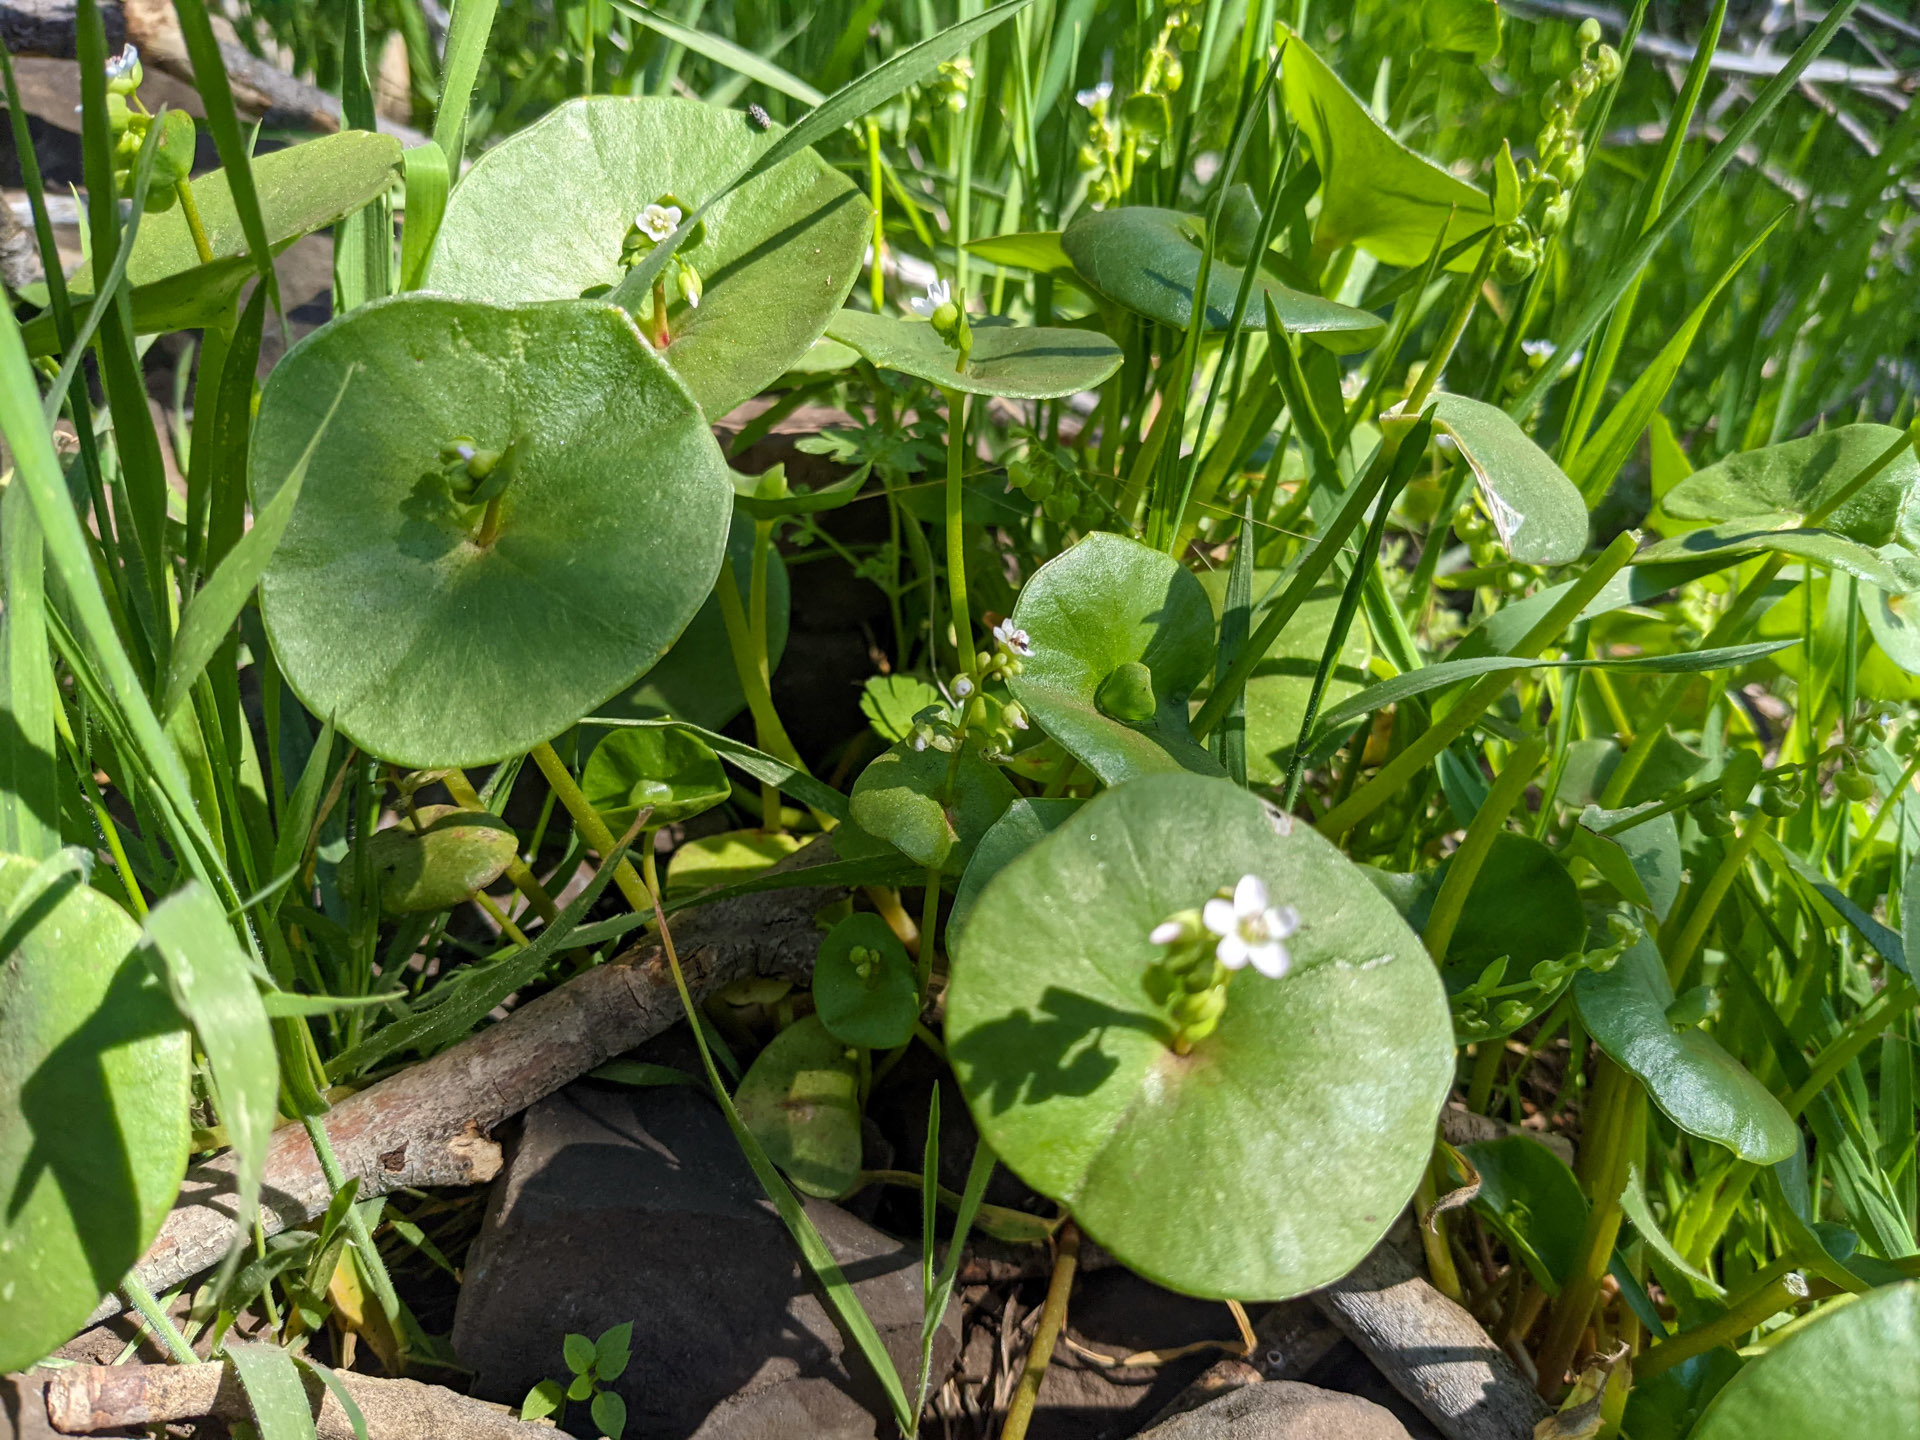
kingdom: Plantae
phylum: Tracheophyta
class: Magnoliopsida
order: Caryophyllales
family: Montiaceae
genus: Claytonia
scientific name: Claytonia perfoliata
